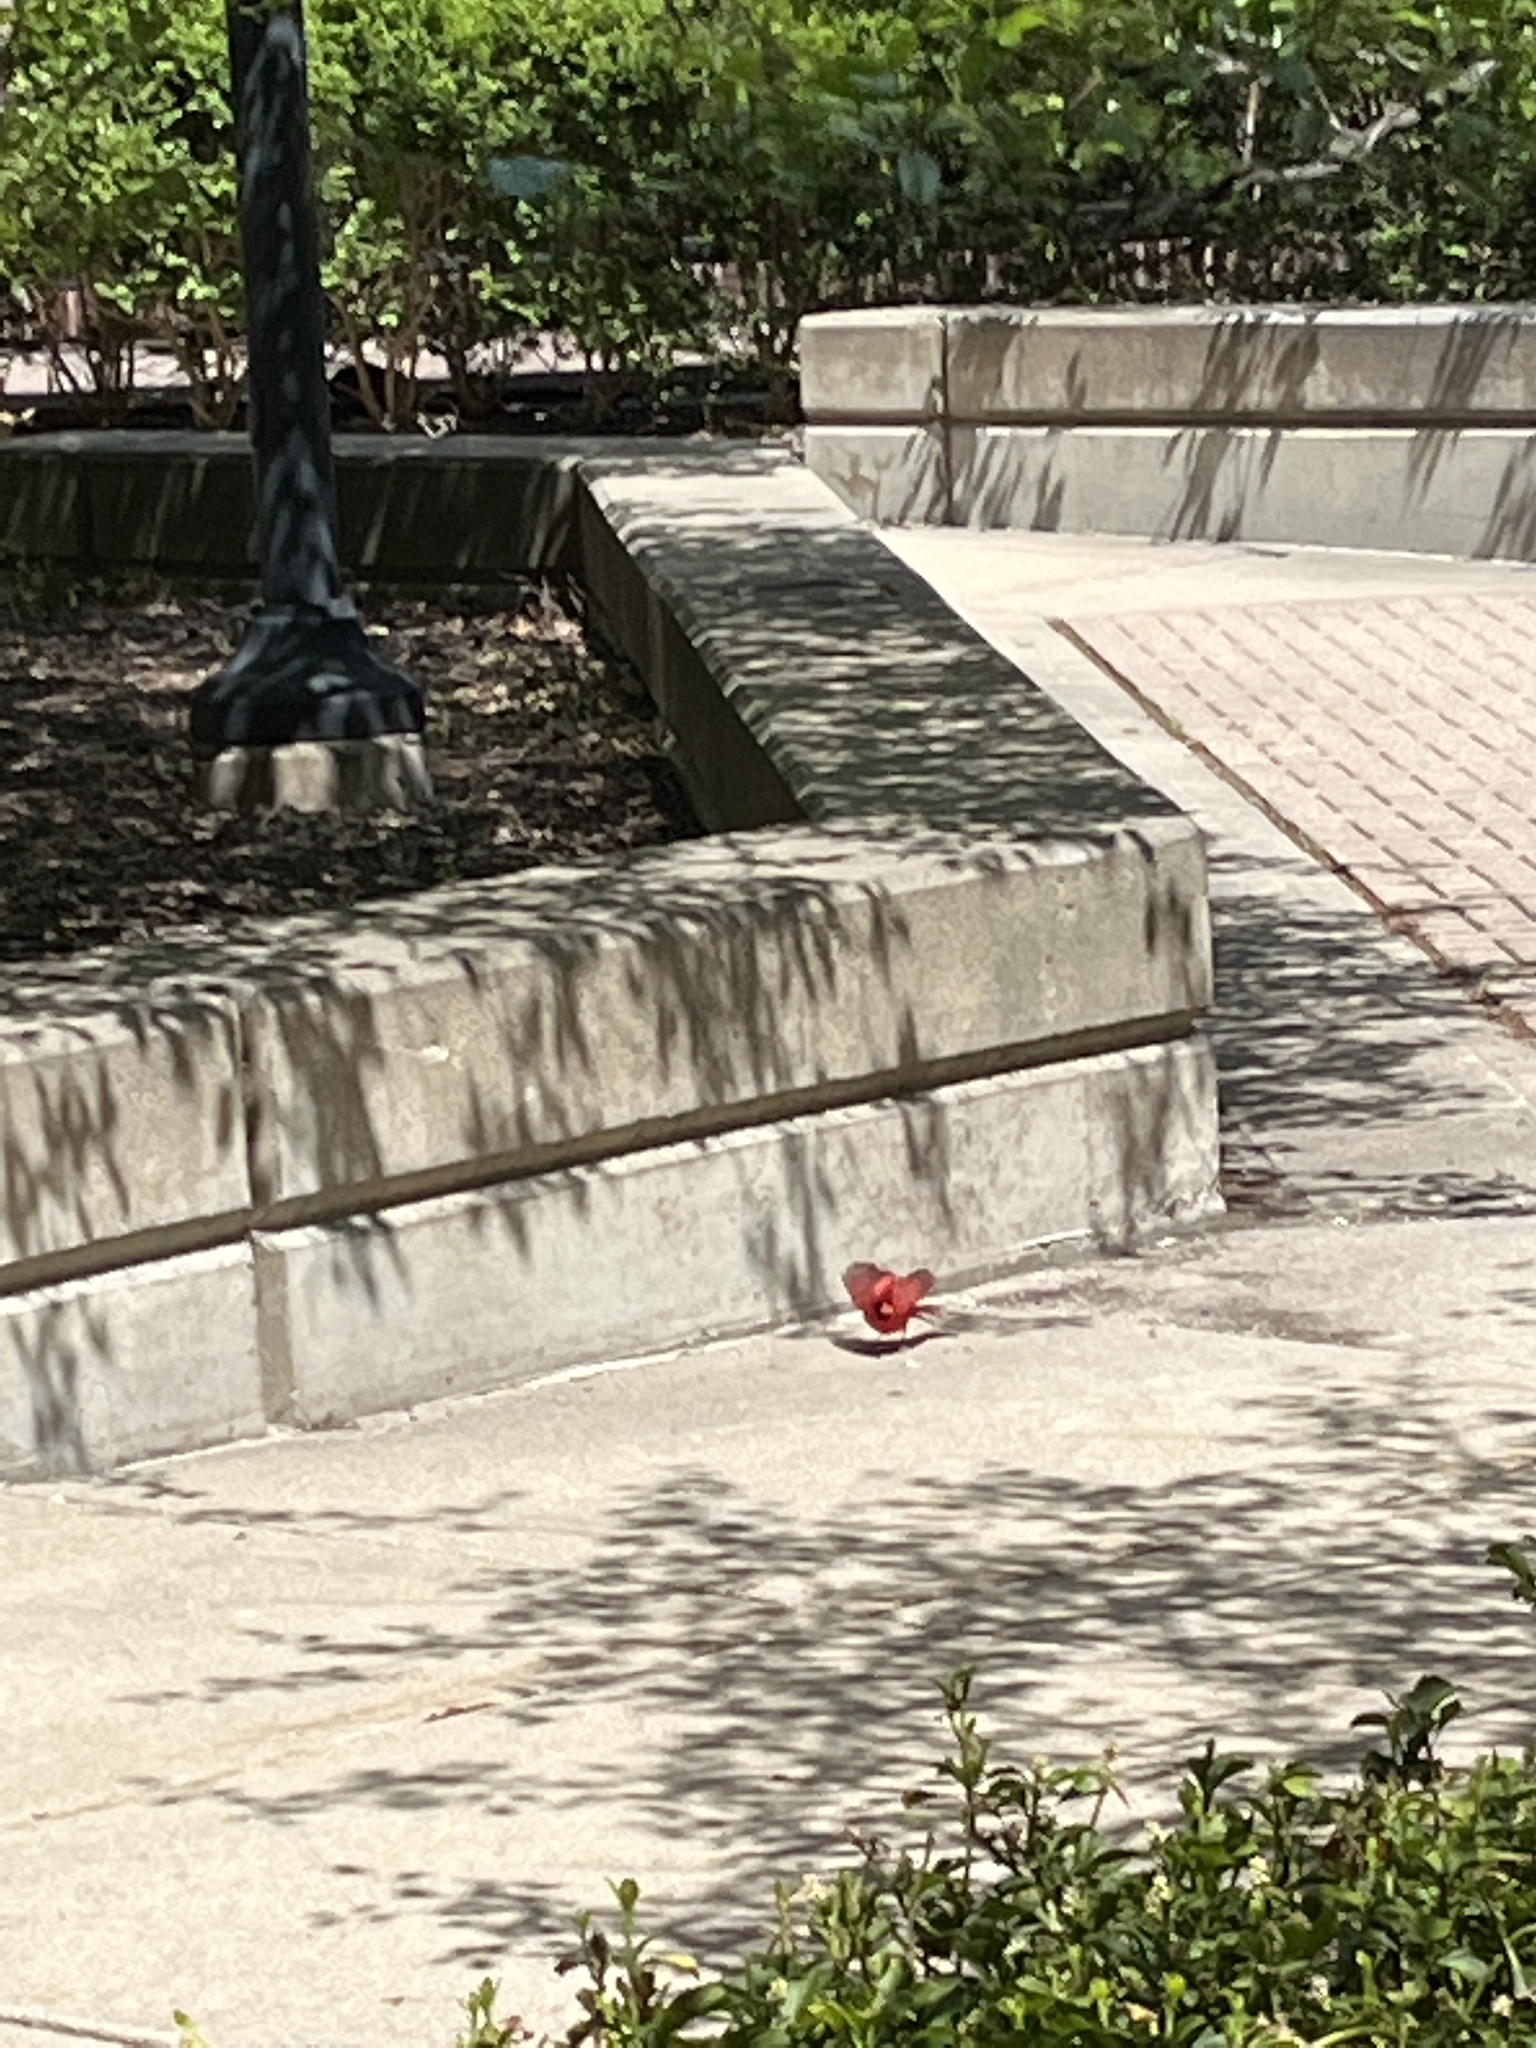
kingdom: Animalia
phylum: Chordata
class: Aves
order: Passeriformes
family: Cardinalidae
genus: Cardinalis
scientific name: Cardinalis cardinalis
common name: Northern cardinal
